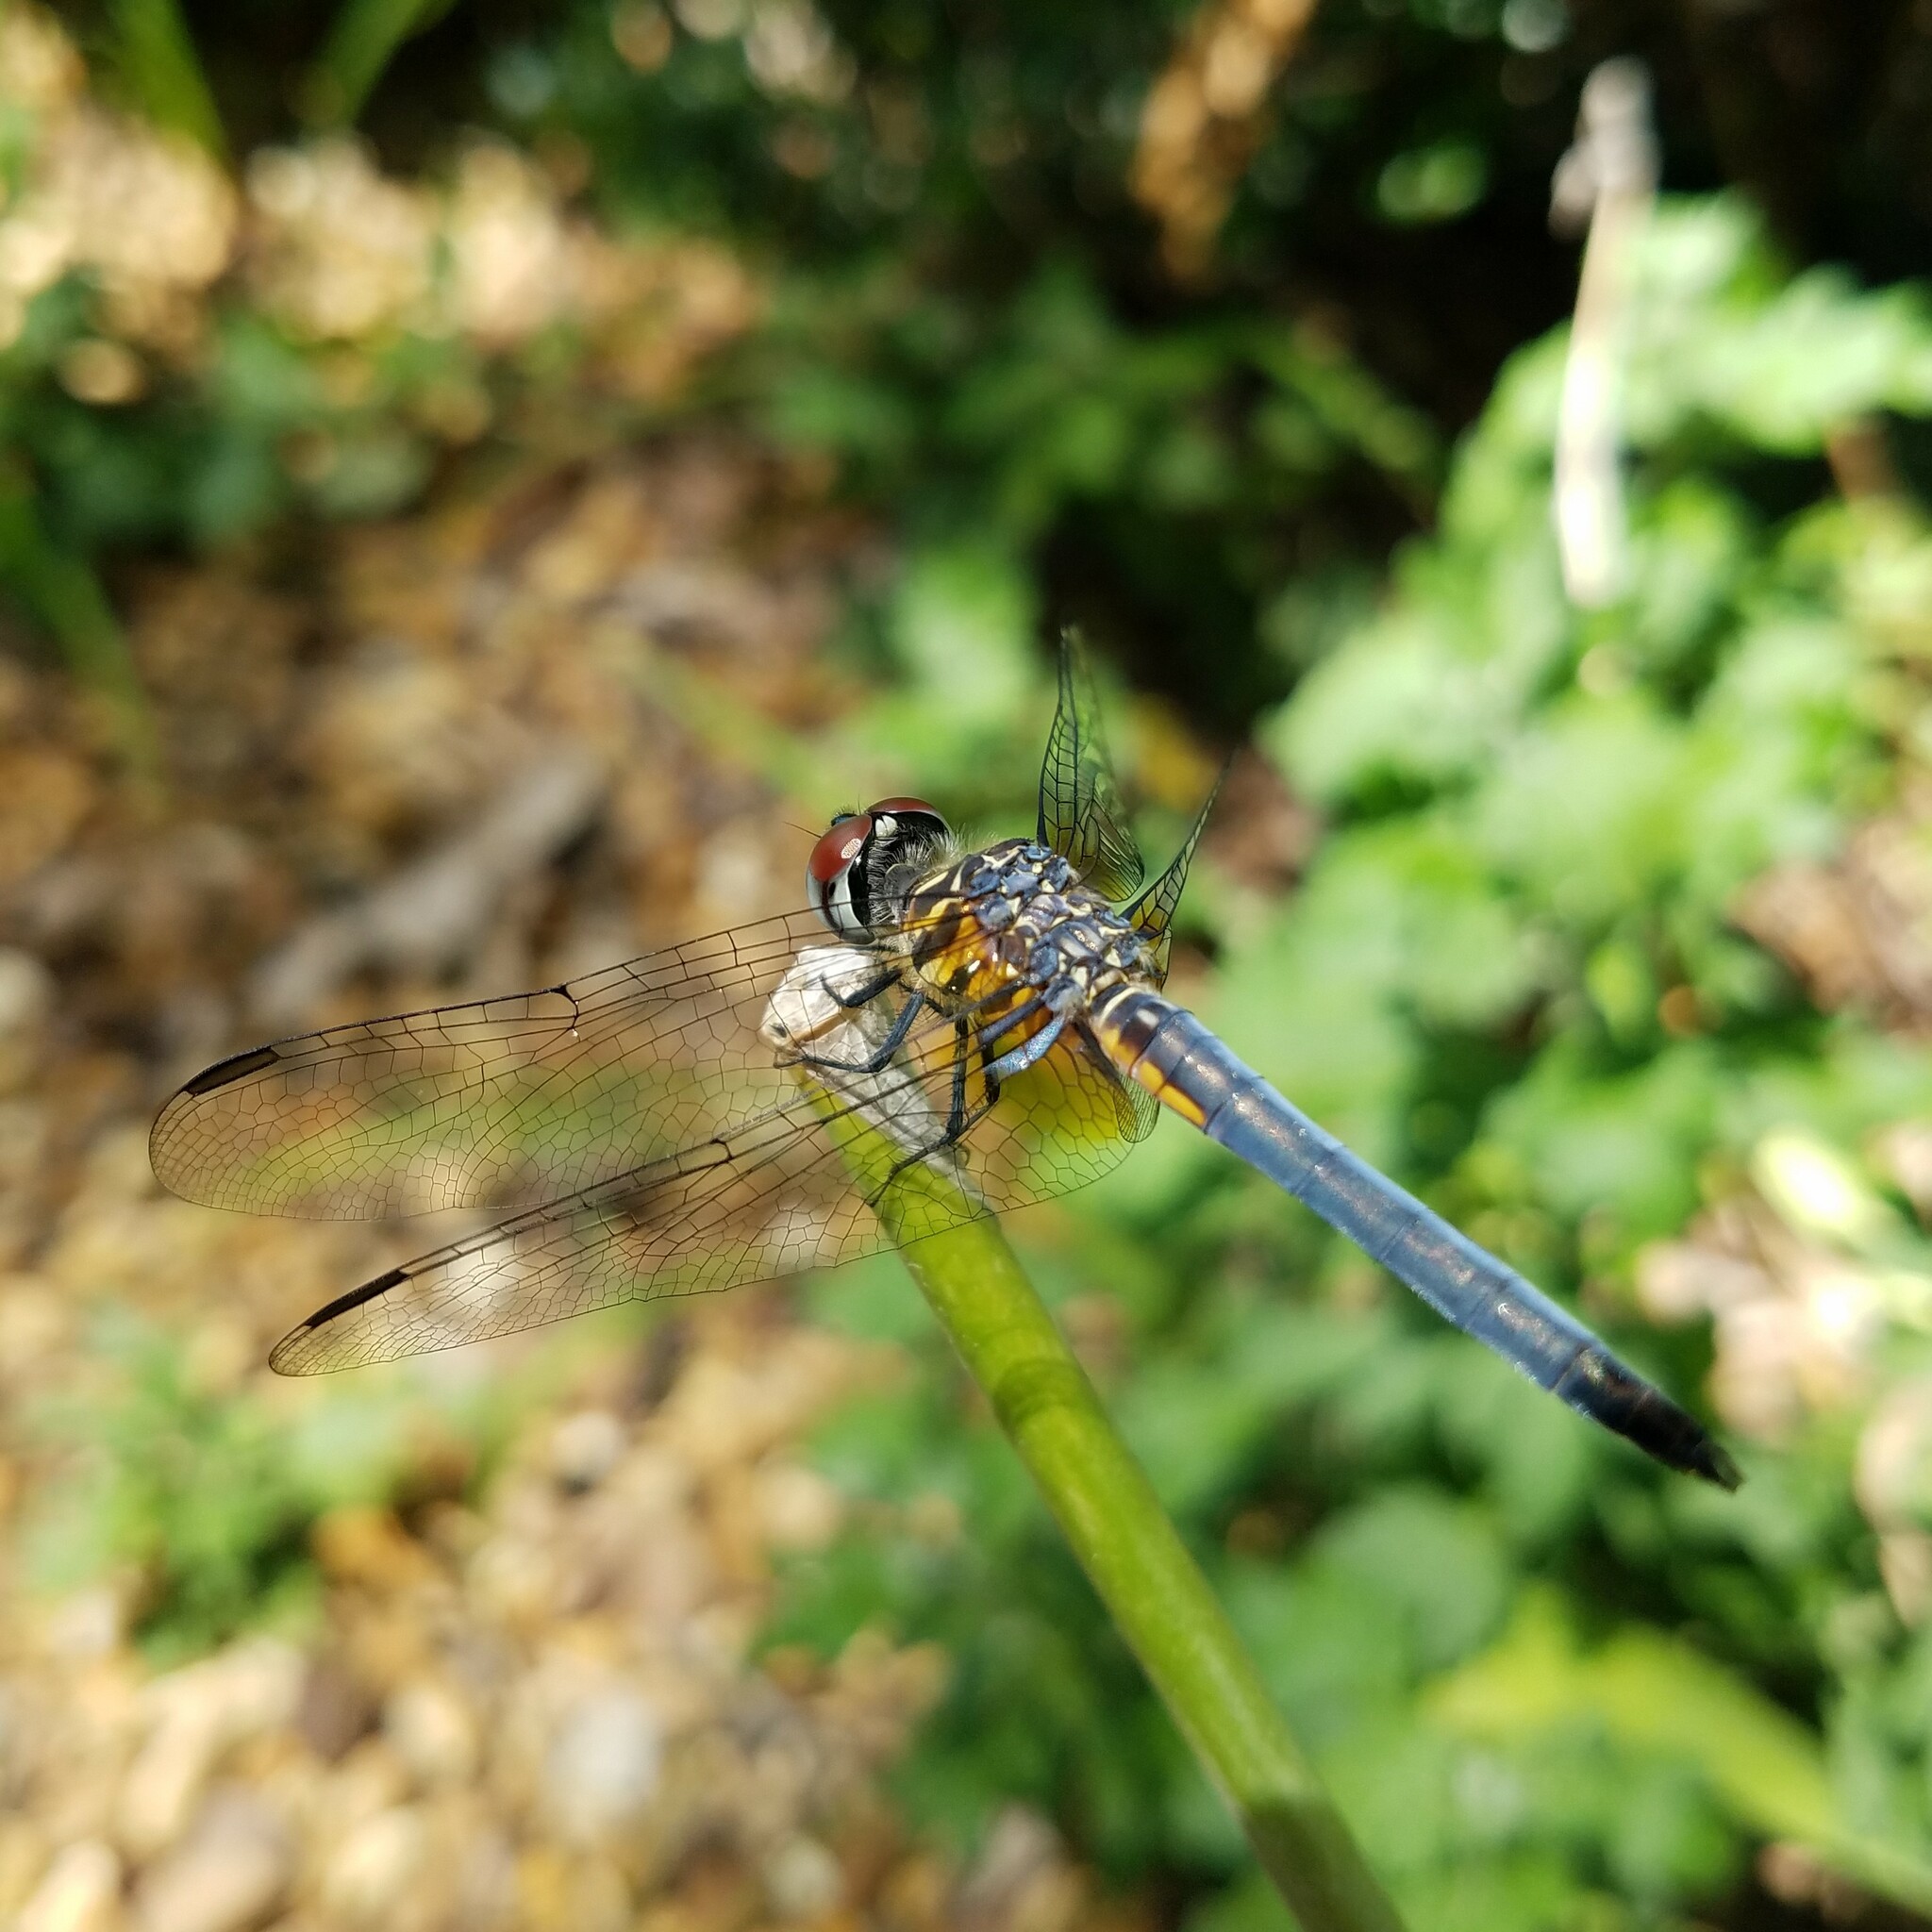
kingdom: Animalia
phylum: Arthropoda
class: Insecta
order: Odonata
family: Libellulidae
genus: Pachydiplax
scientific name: Pachydiplax longipennis
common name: Blue dasher
